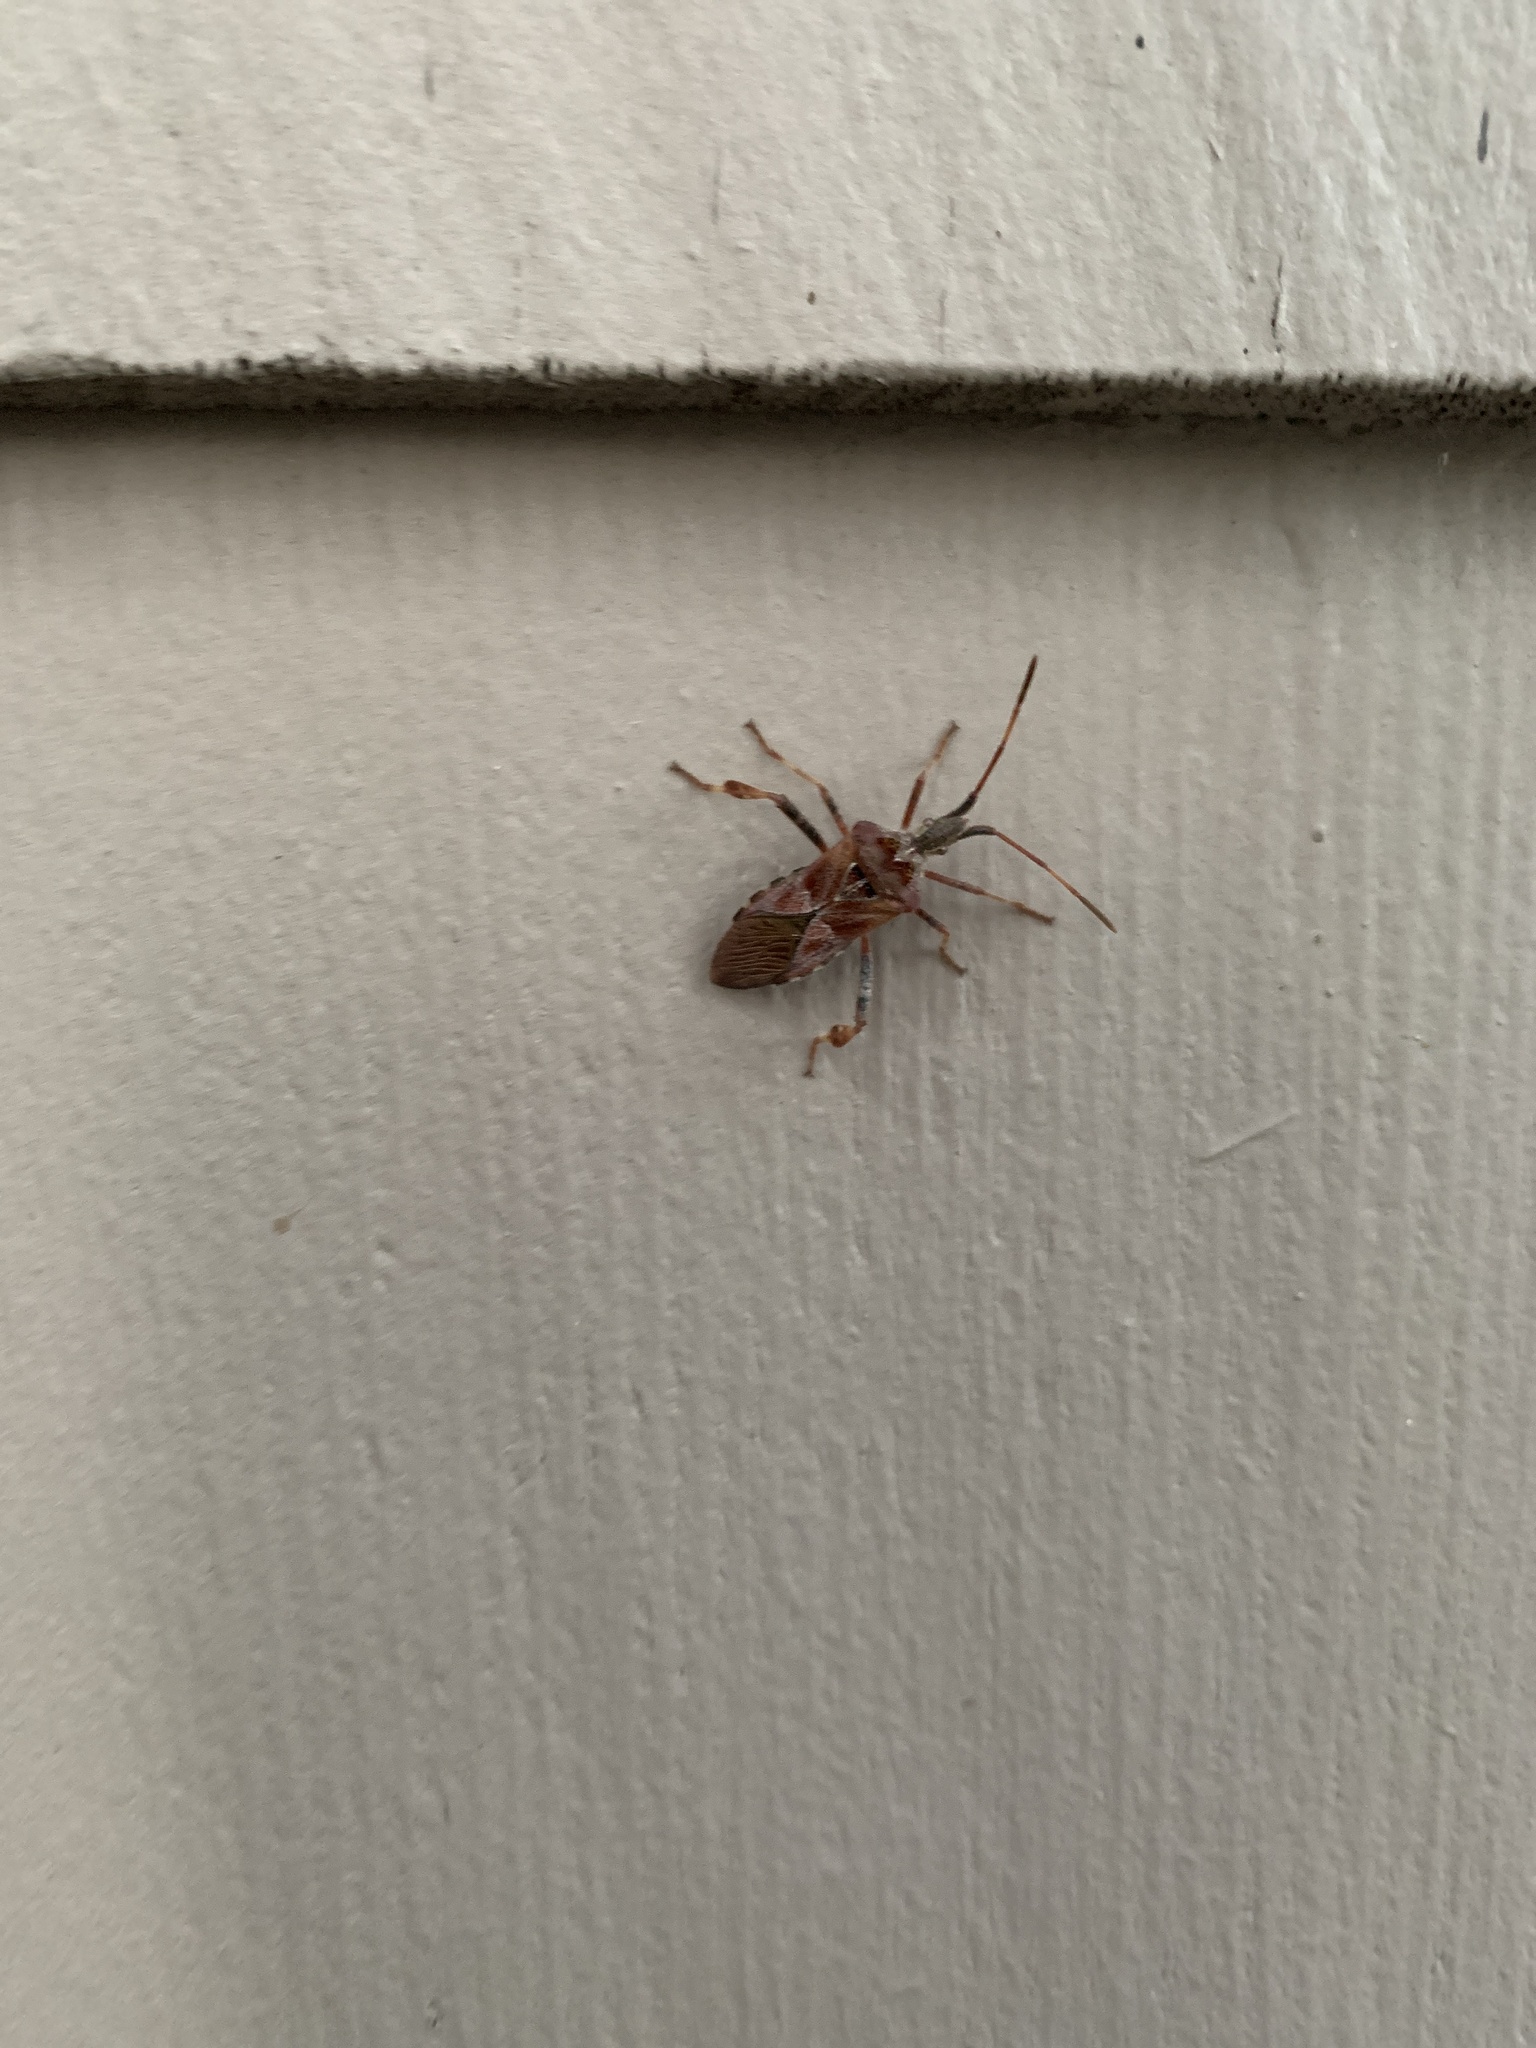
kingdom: Animalia
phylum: Arthropoda
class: Insecta
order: Hemiptera
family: Coreidae
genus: Leptoglossus
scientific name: Leptoglossus occidentalis
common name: Western conifer-seed bug
